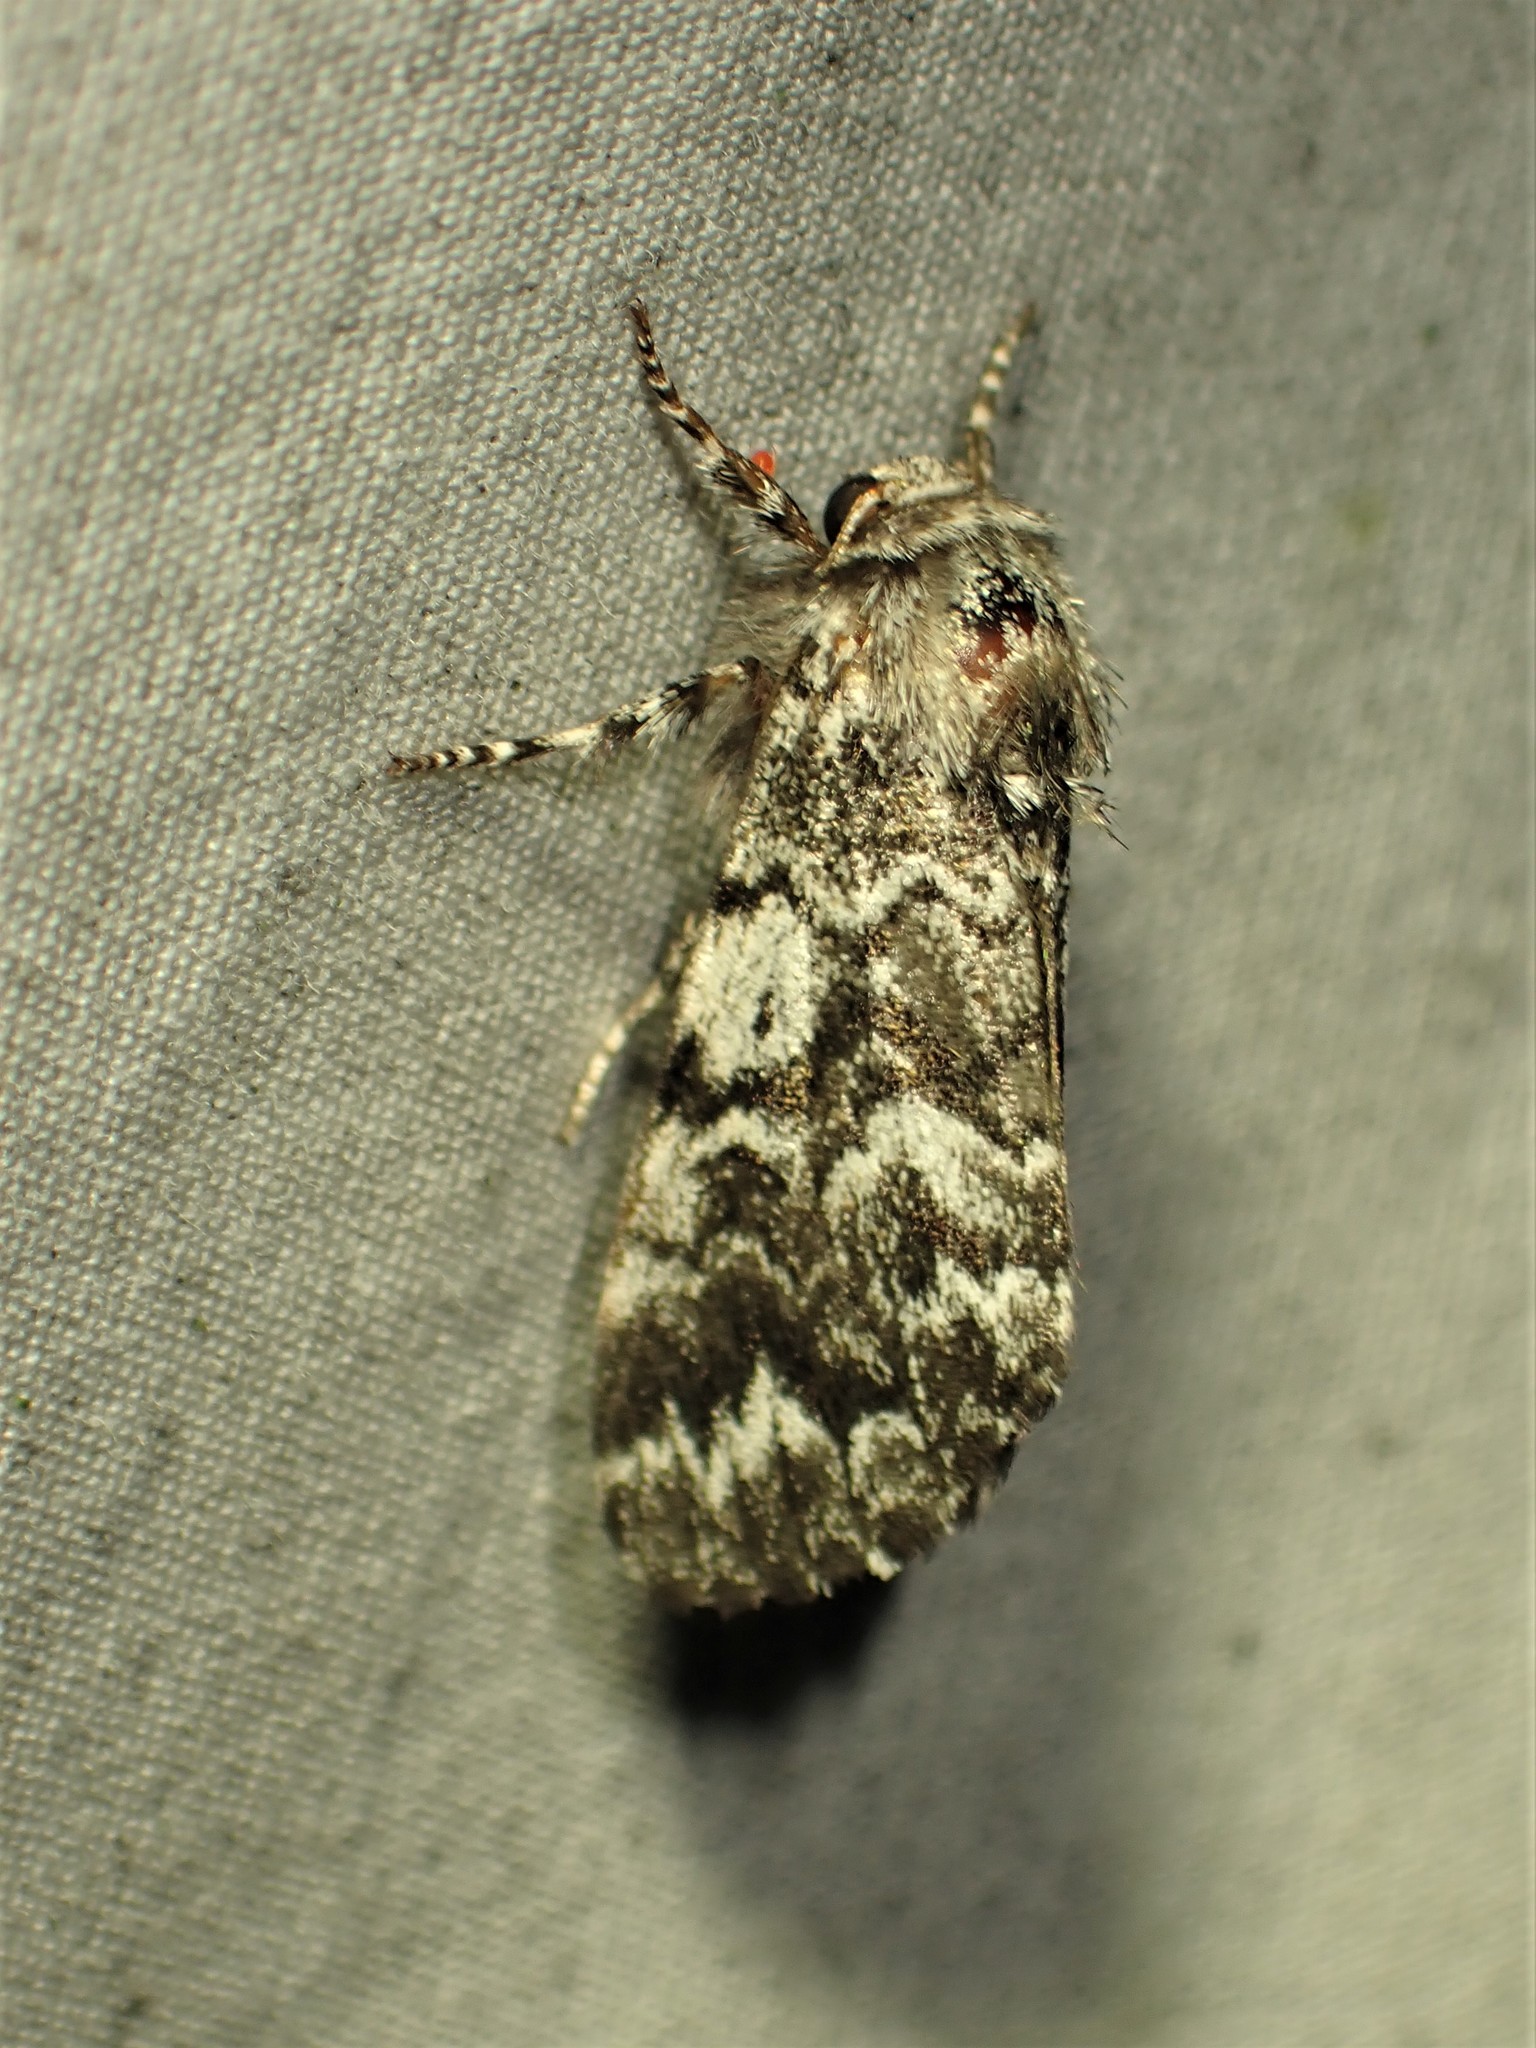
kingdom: Animalia
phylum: Arthropoda
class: Insecta
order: Lepidoptera
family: Noctuidae
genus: Panthea
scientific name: Panthea acronyctoides
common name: Black zigzag moth
